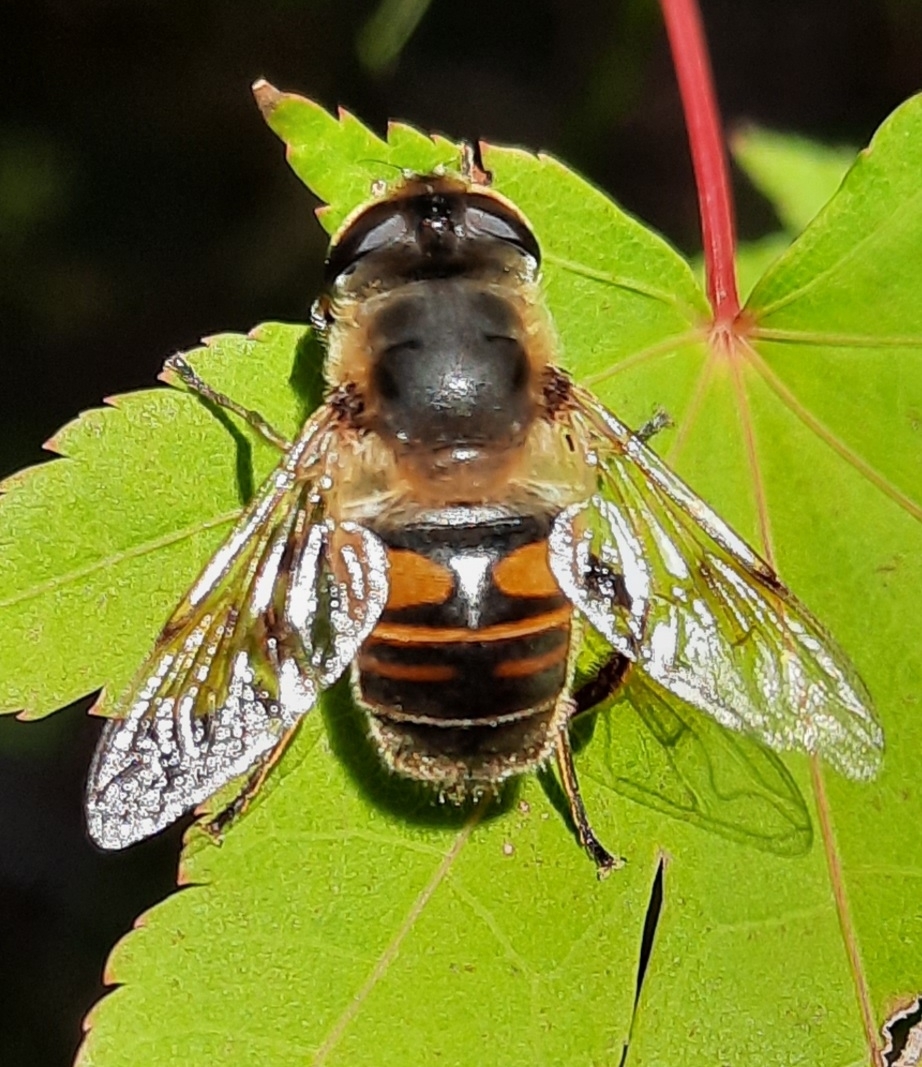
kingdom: Animalia
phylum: Arthropoda
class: Insecta
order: Diptera
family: Syrphidae
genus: Eristalis
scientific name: Eristalis tenax
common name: Drone fly
